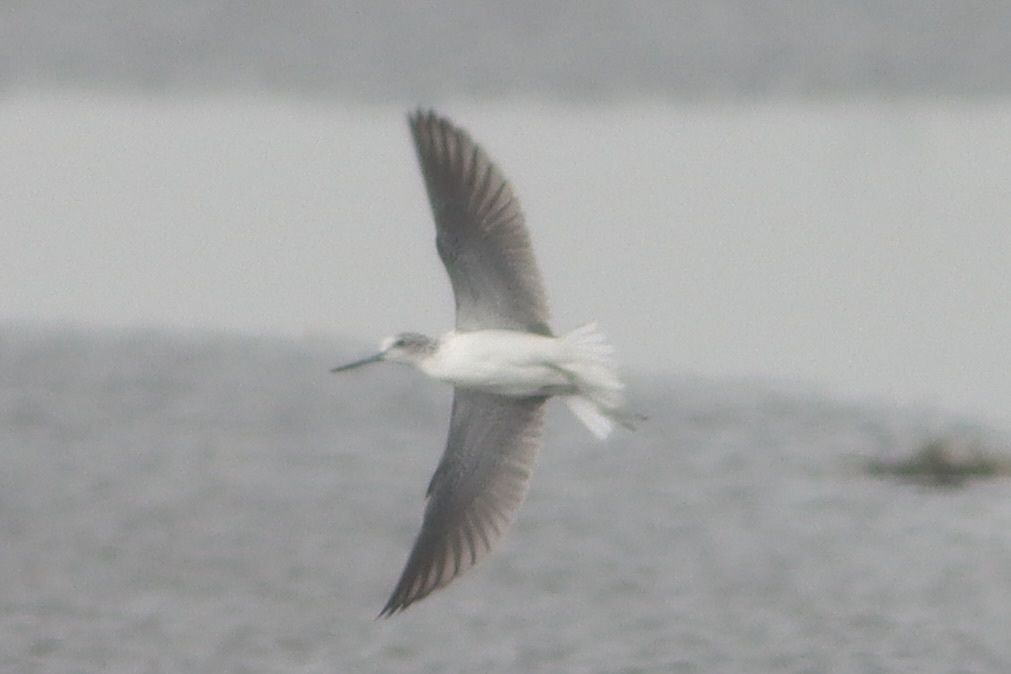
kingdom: Animalia
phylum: Chordata
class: Aves
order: Charadriiformes
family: Scolopacidae
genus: Tringa
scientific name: Tringa nebularia
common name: Common greenshank
